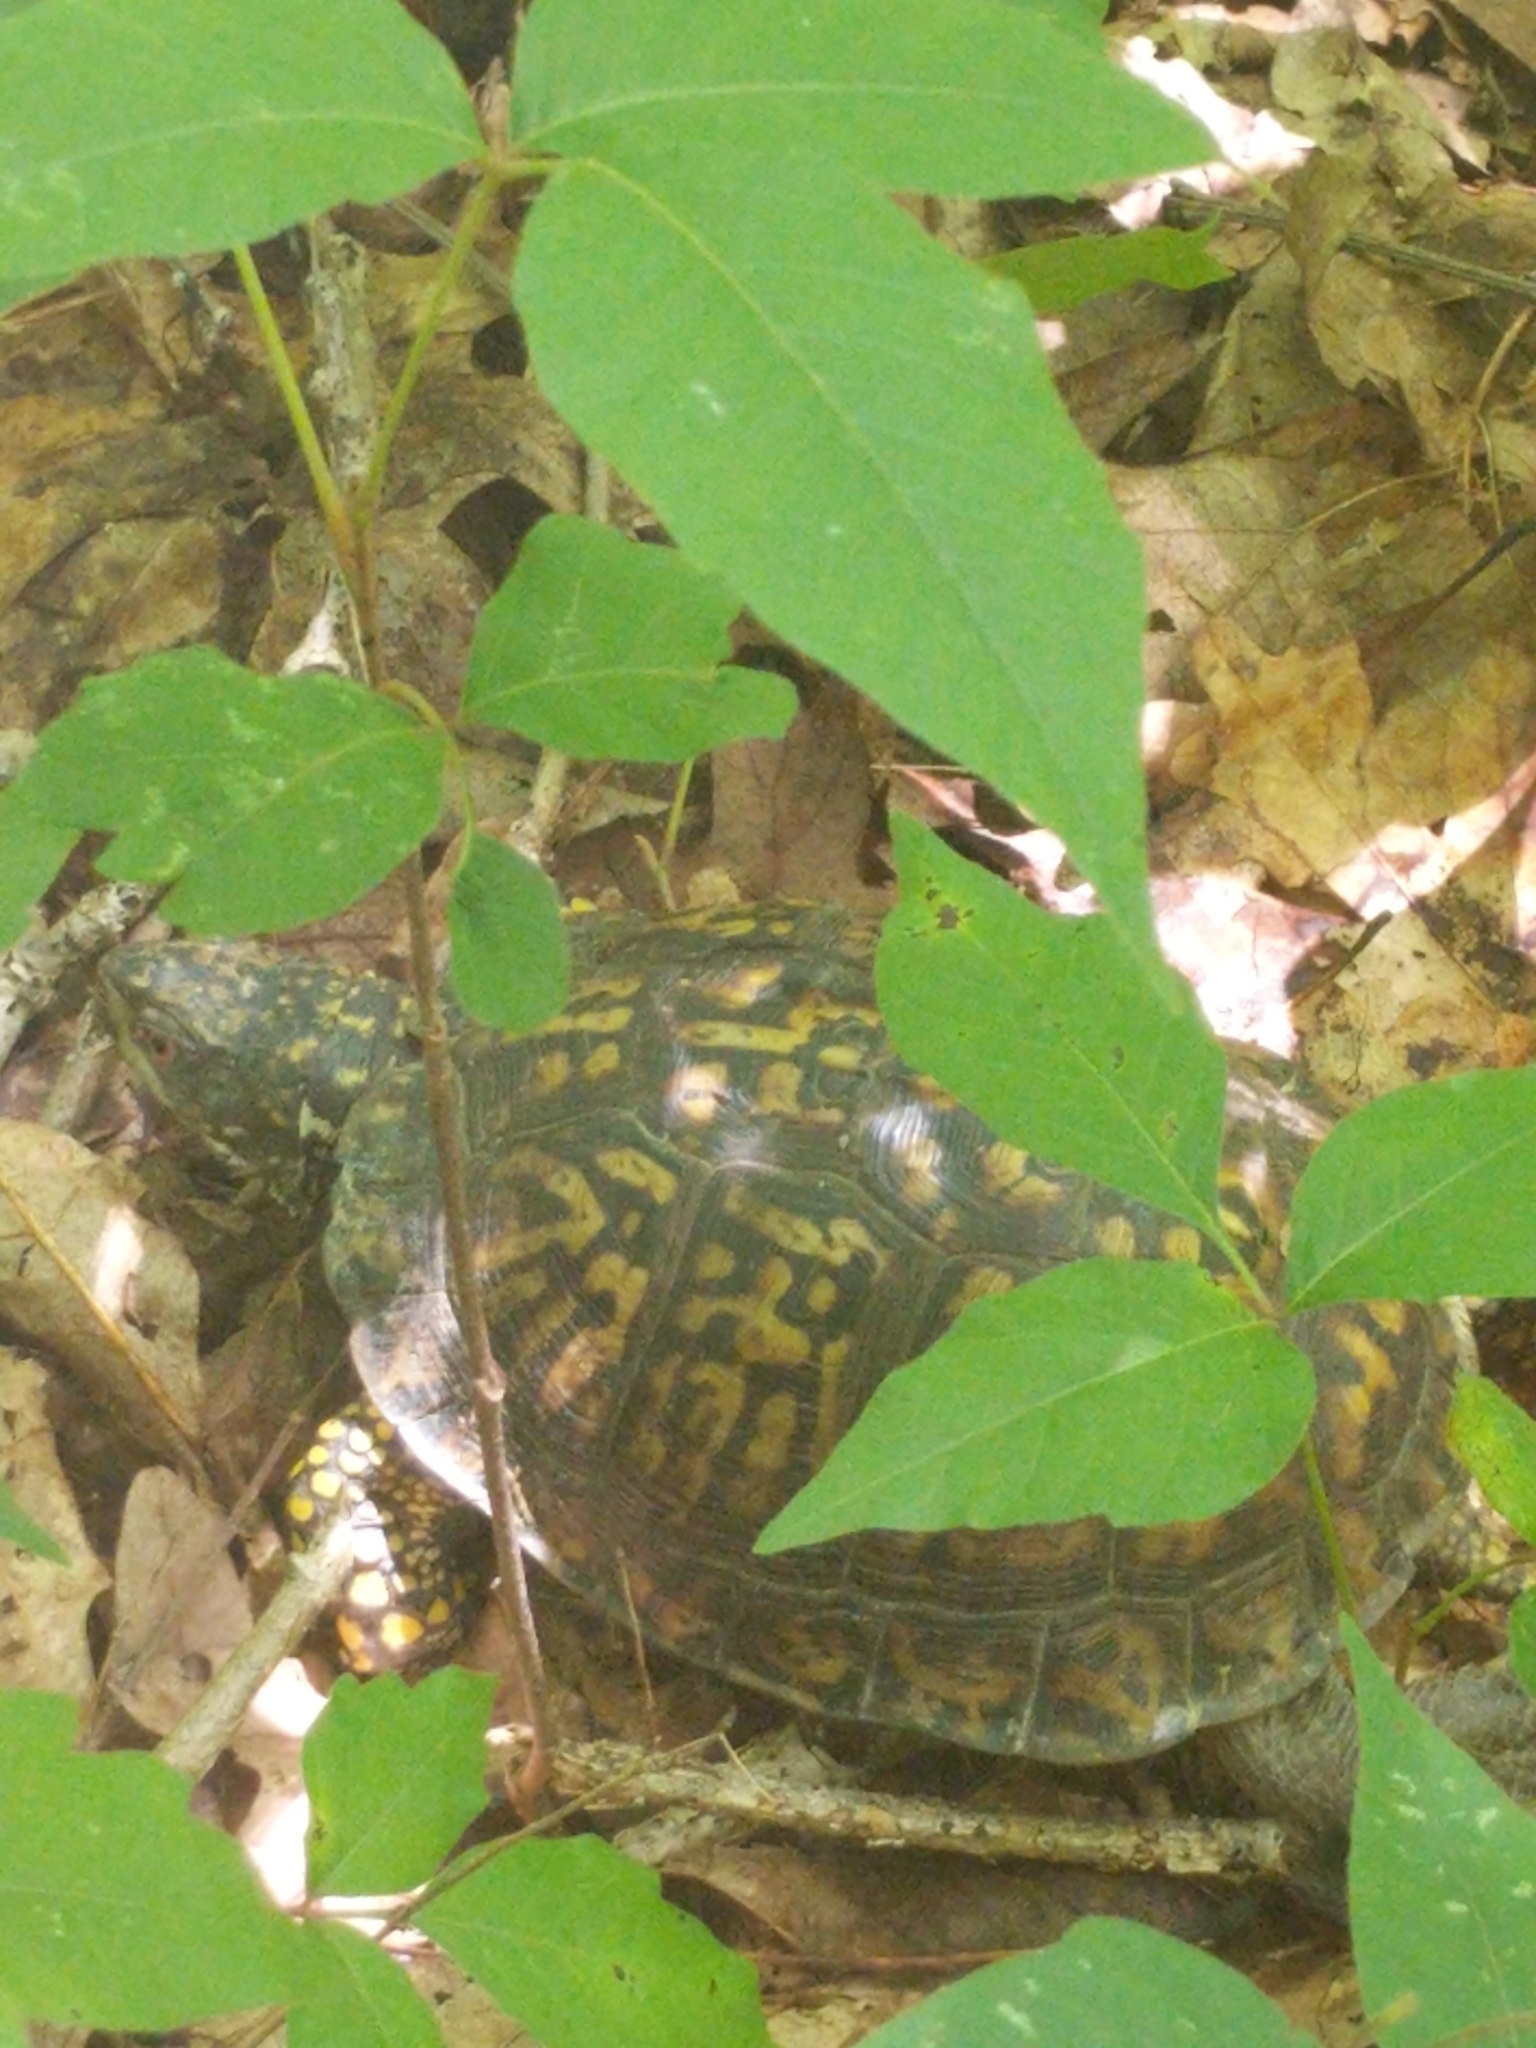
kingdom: Animalia
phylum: Chordata
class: Testudines
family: Emydidae
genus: Terrapene
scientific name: Terrapene carolina
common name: Common box turtle
